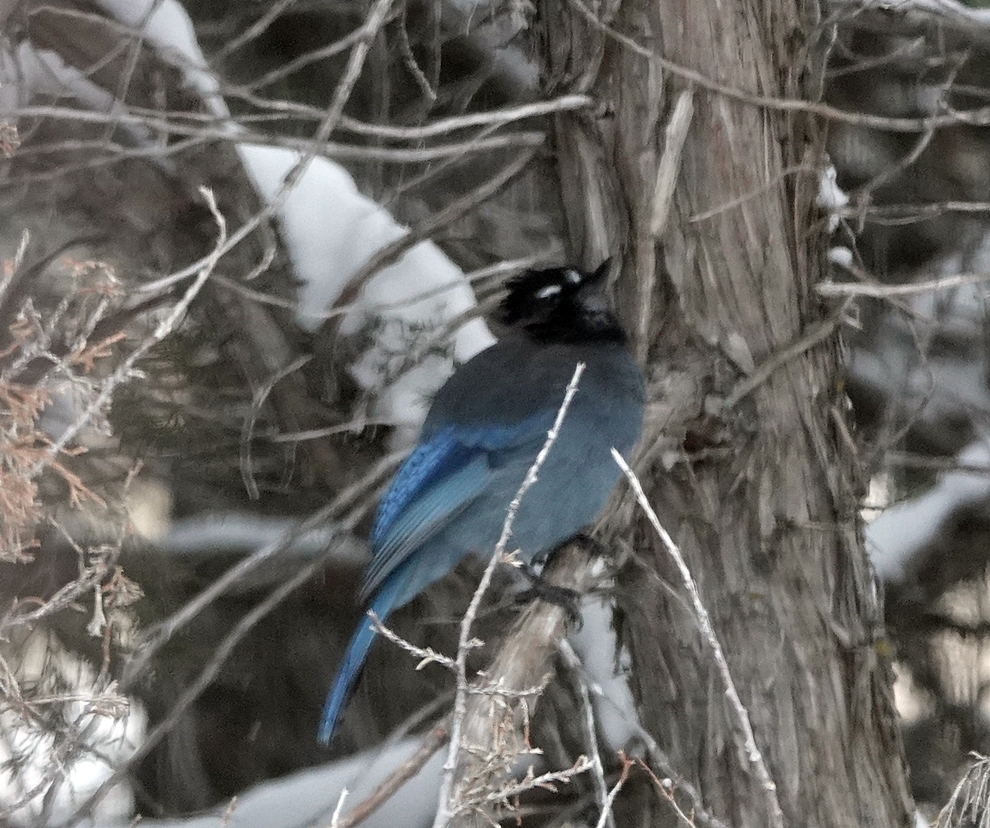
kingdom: Animalia
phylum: Chordata
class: Aves
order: Passeriformes
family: Corvidae
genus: Cyanocitta
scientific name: Cyanocitta stelleri
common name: Steller's jay
